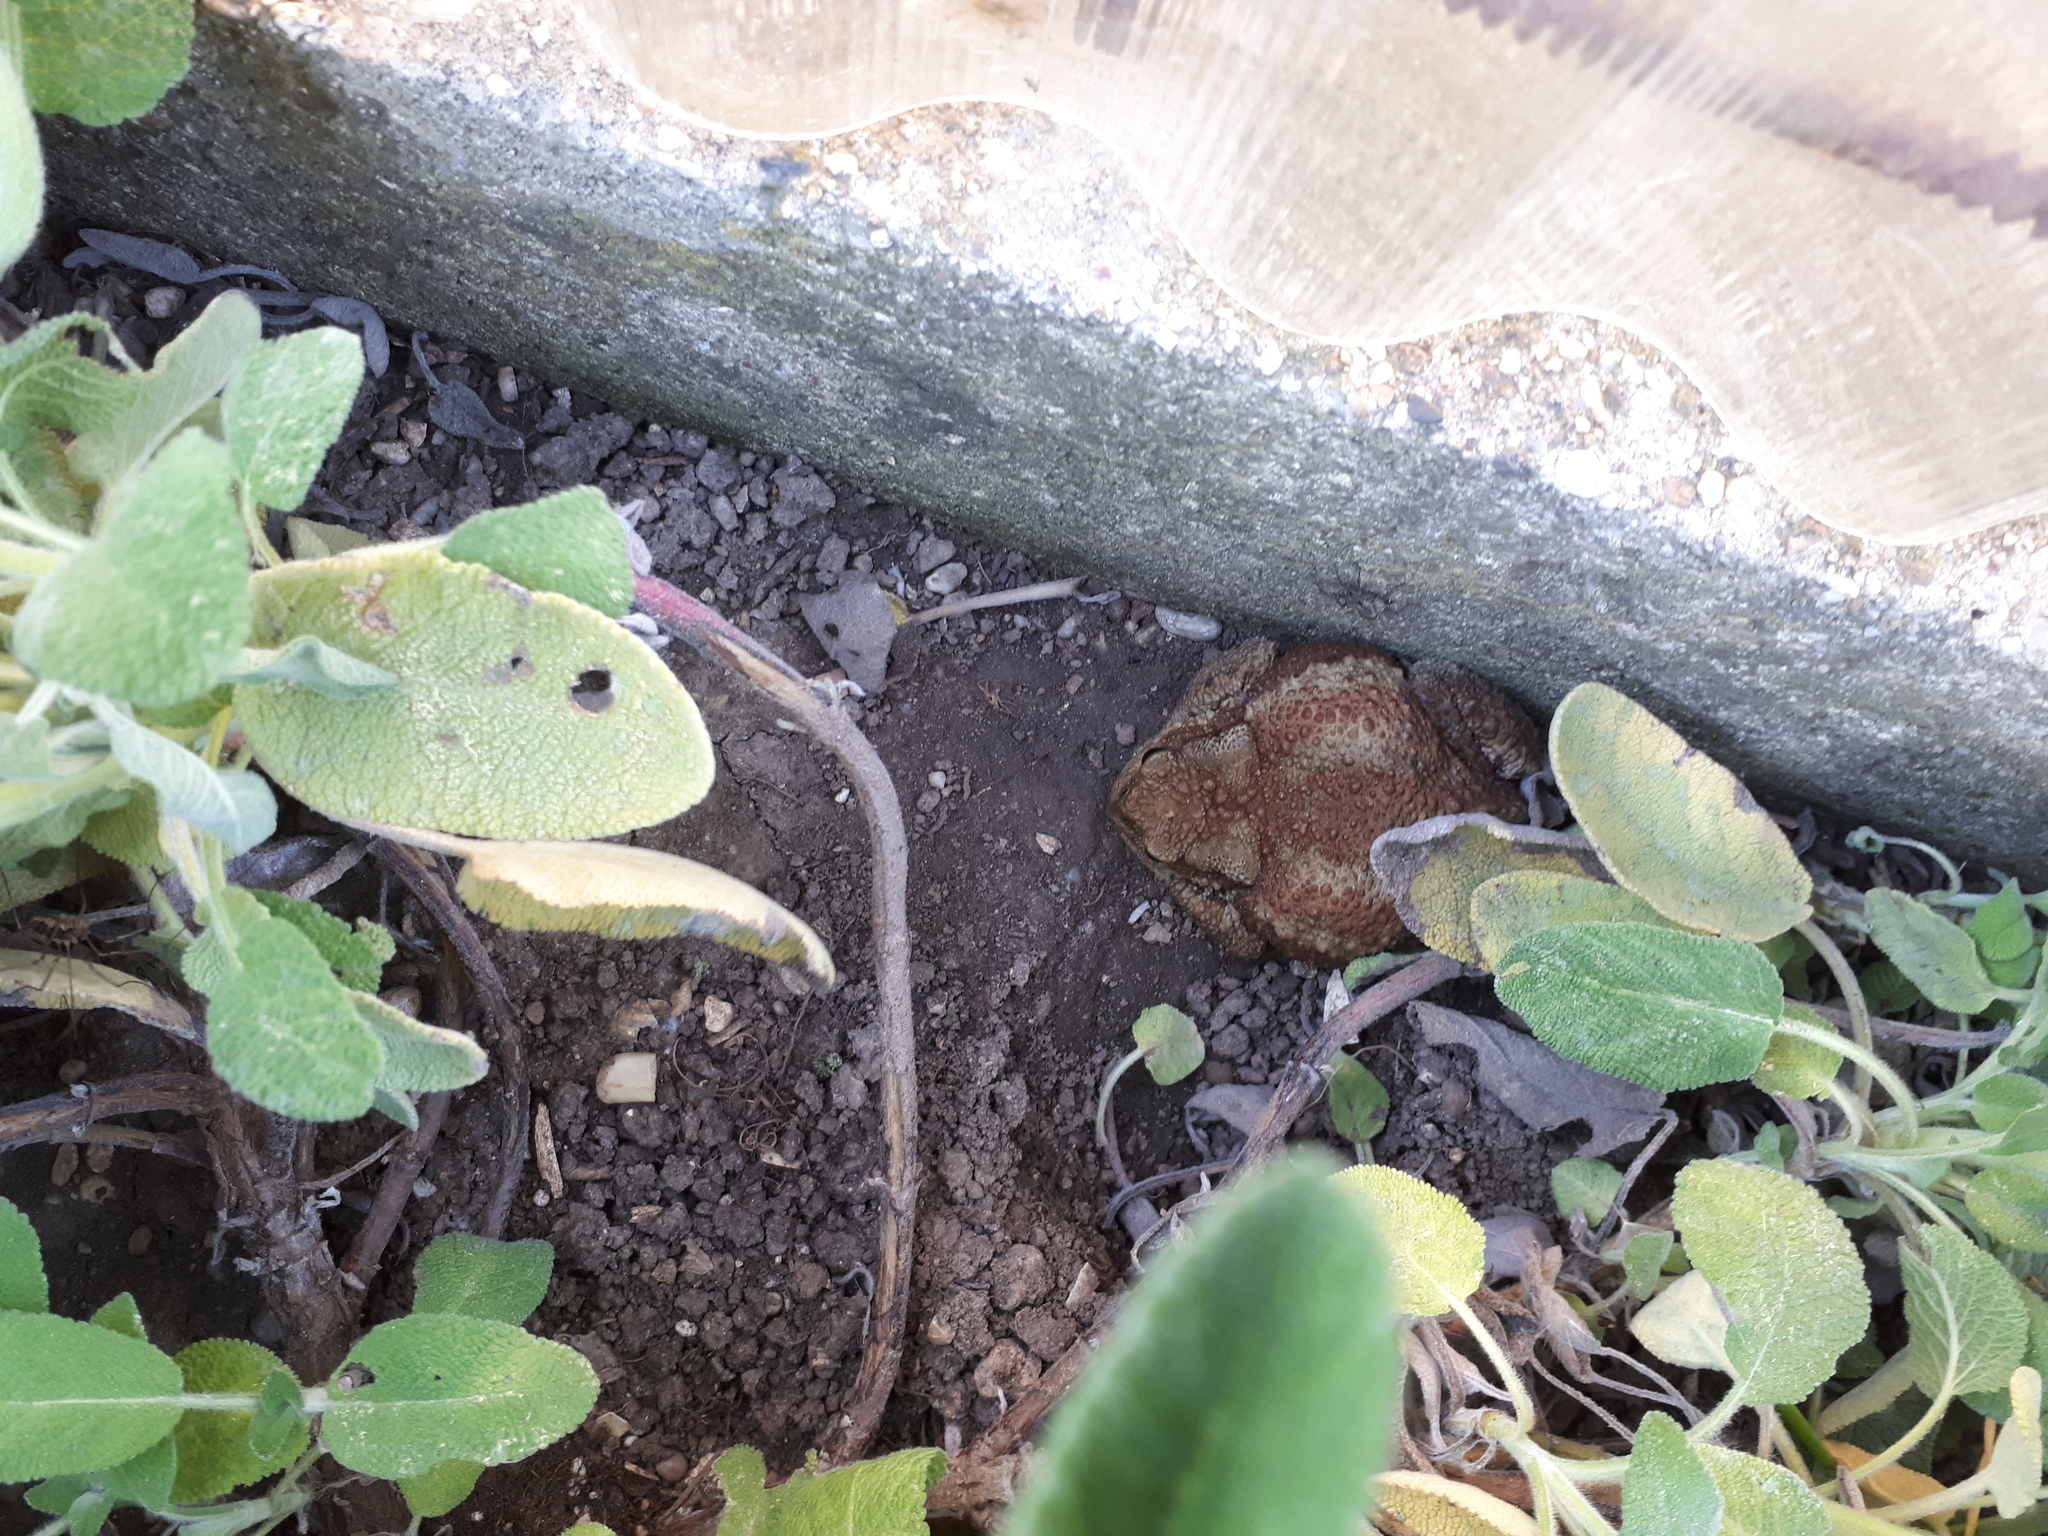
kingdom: Animalia
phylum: Chordata
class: Amphibia
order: Anura
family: Bufonidae
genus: Bufo
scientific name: Bufo bufo
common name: Common toad
